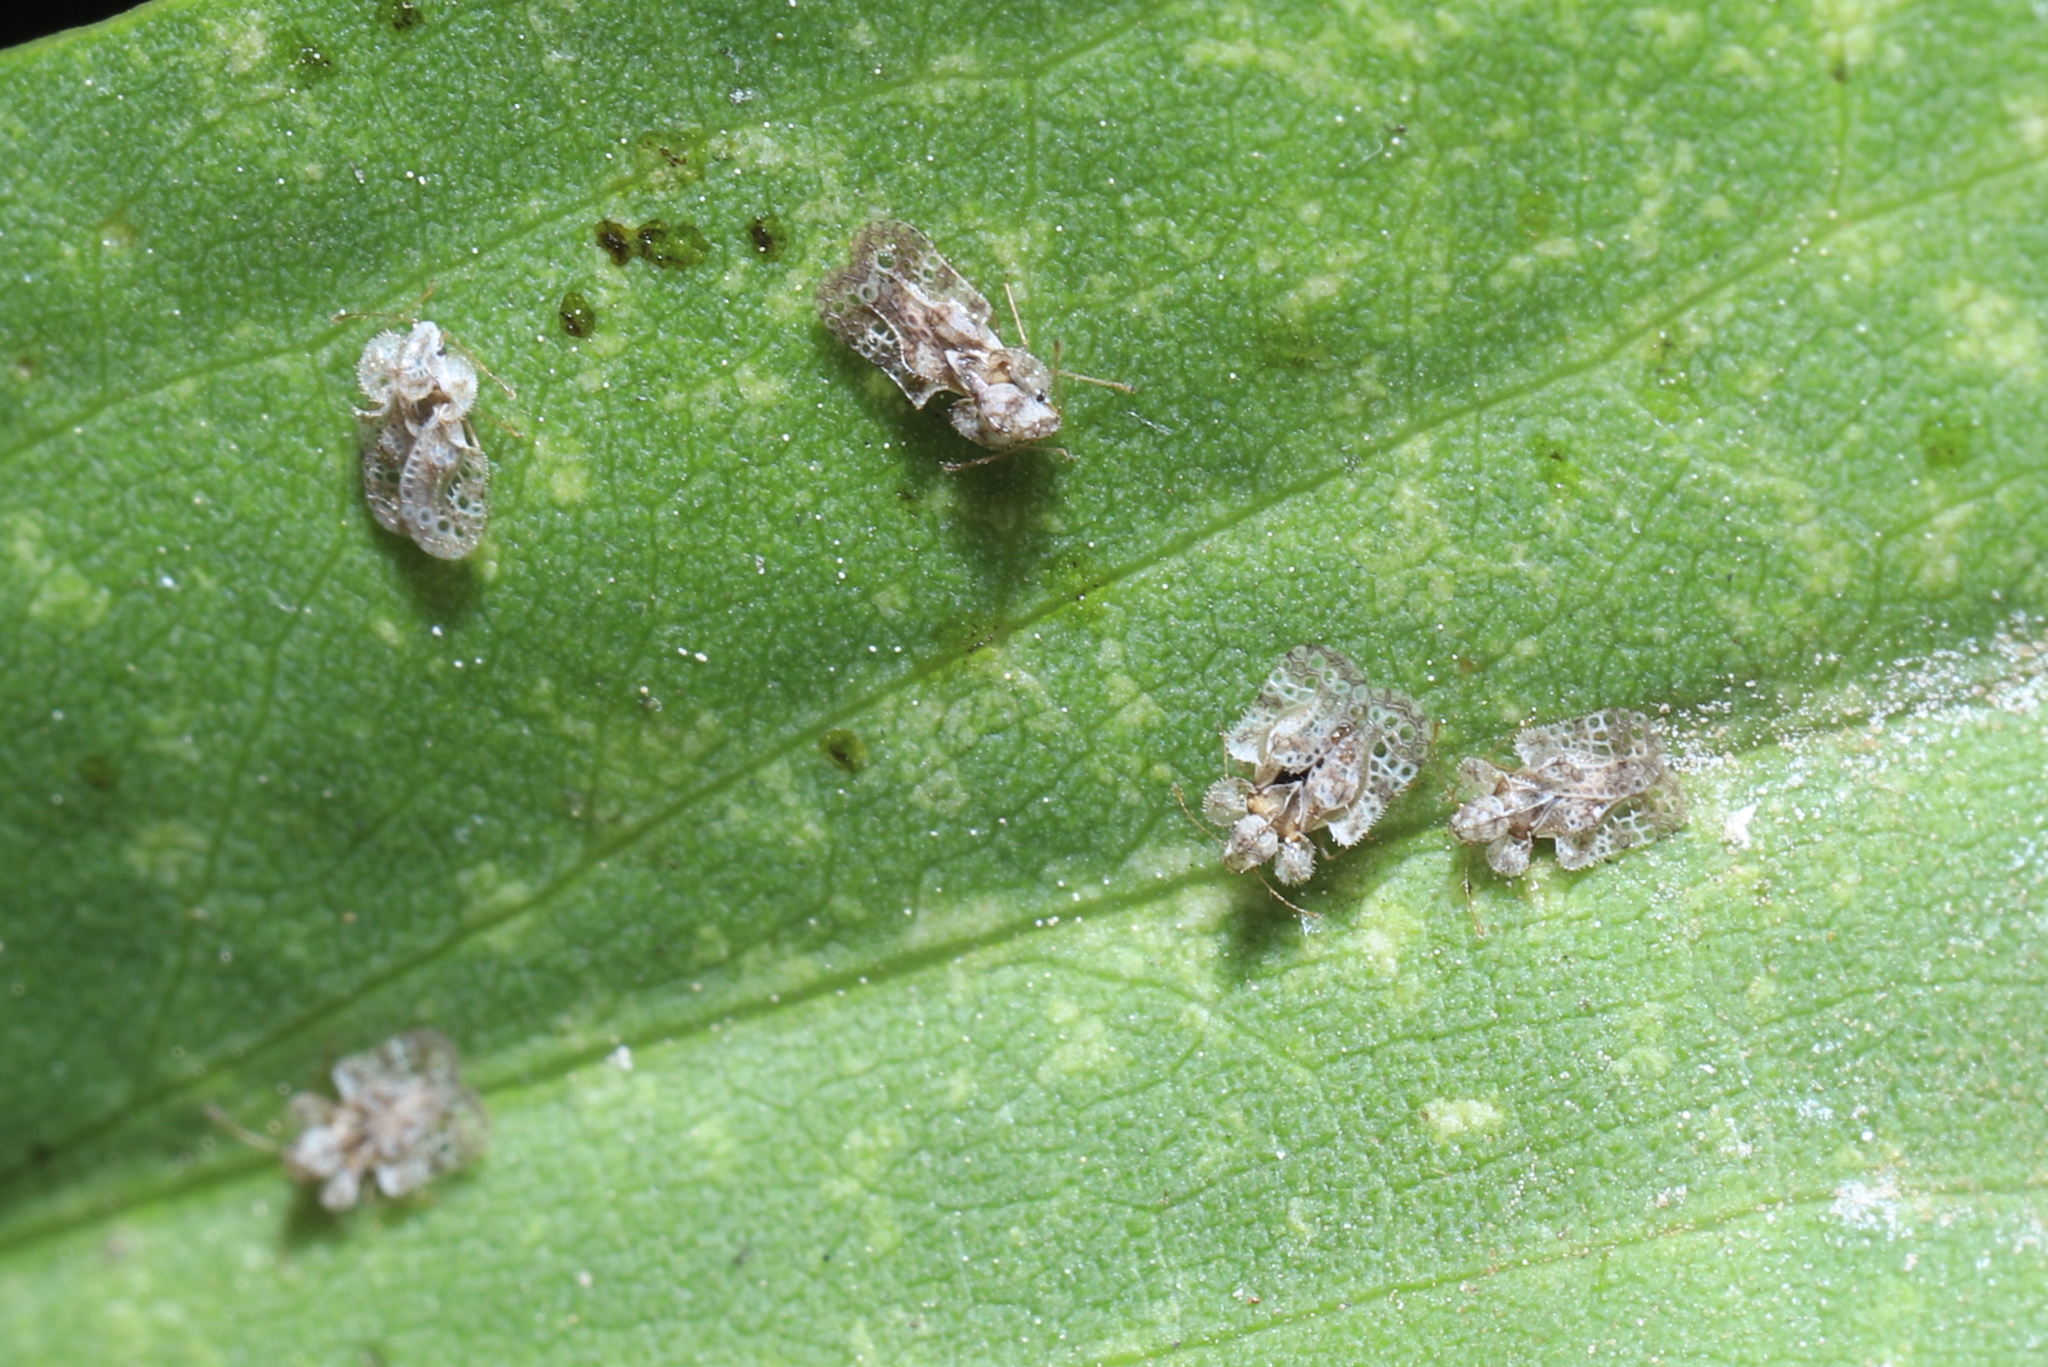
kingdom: Animalia
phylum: Arthropoda
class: Insecta
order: Hemiptera
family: Tingidae
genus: Corythucha
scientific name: Corythucha marmorata
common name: Chrysanthemum lace bug
